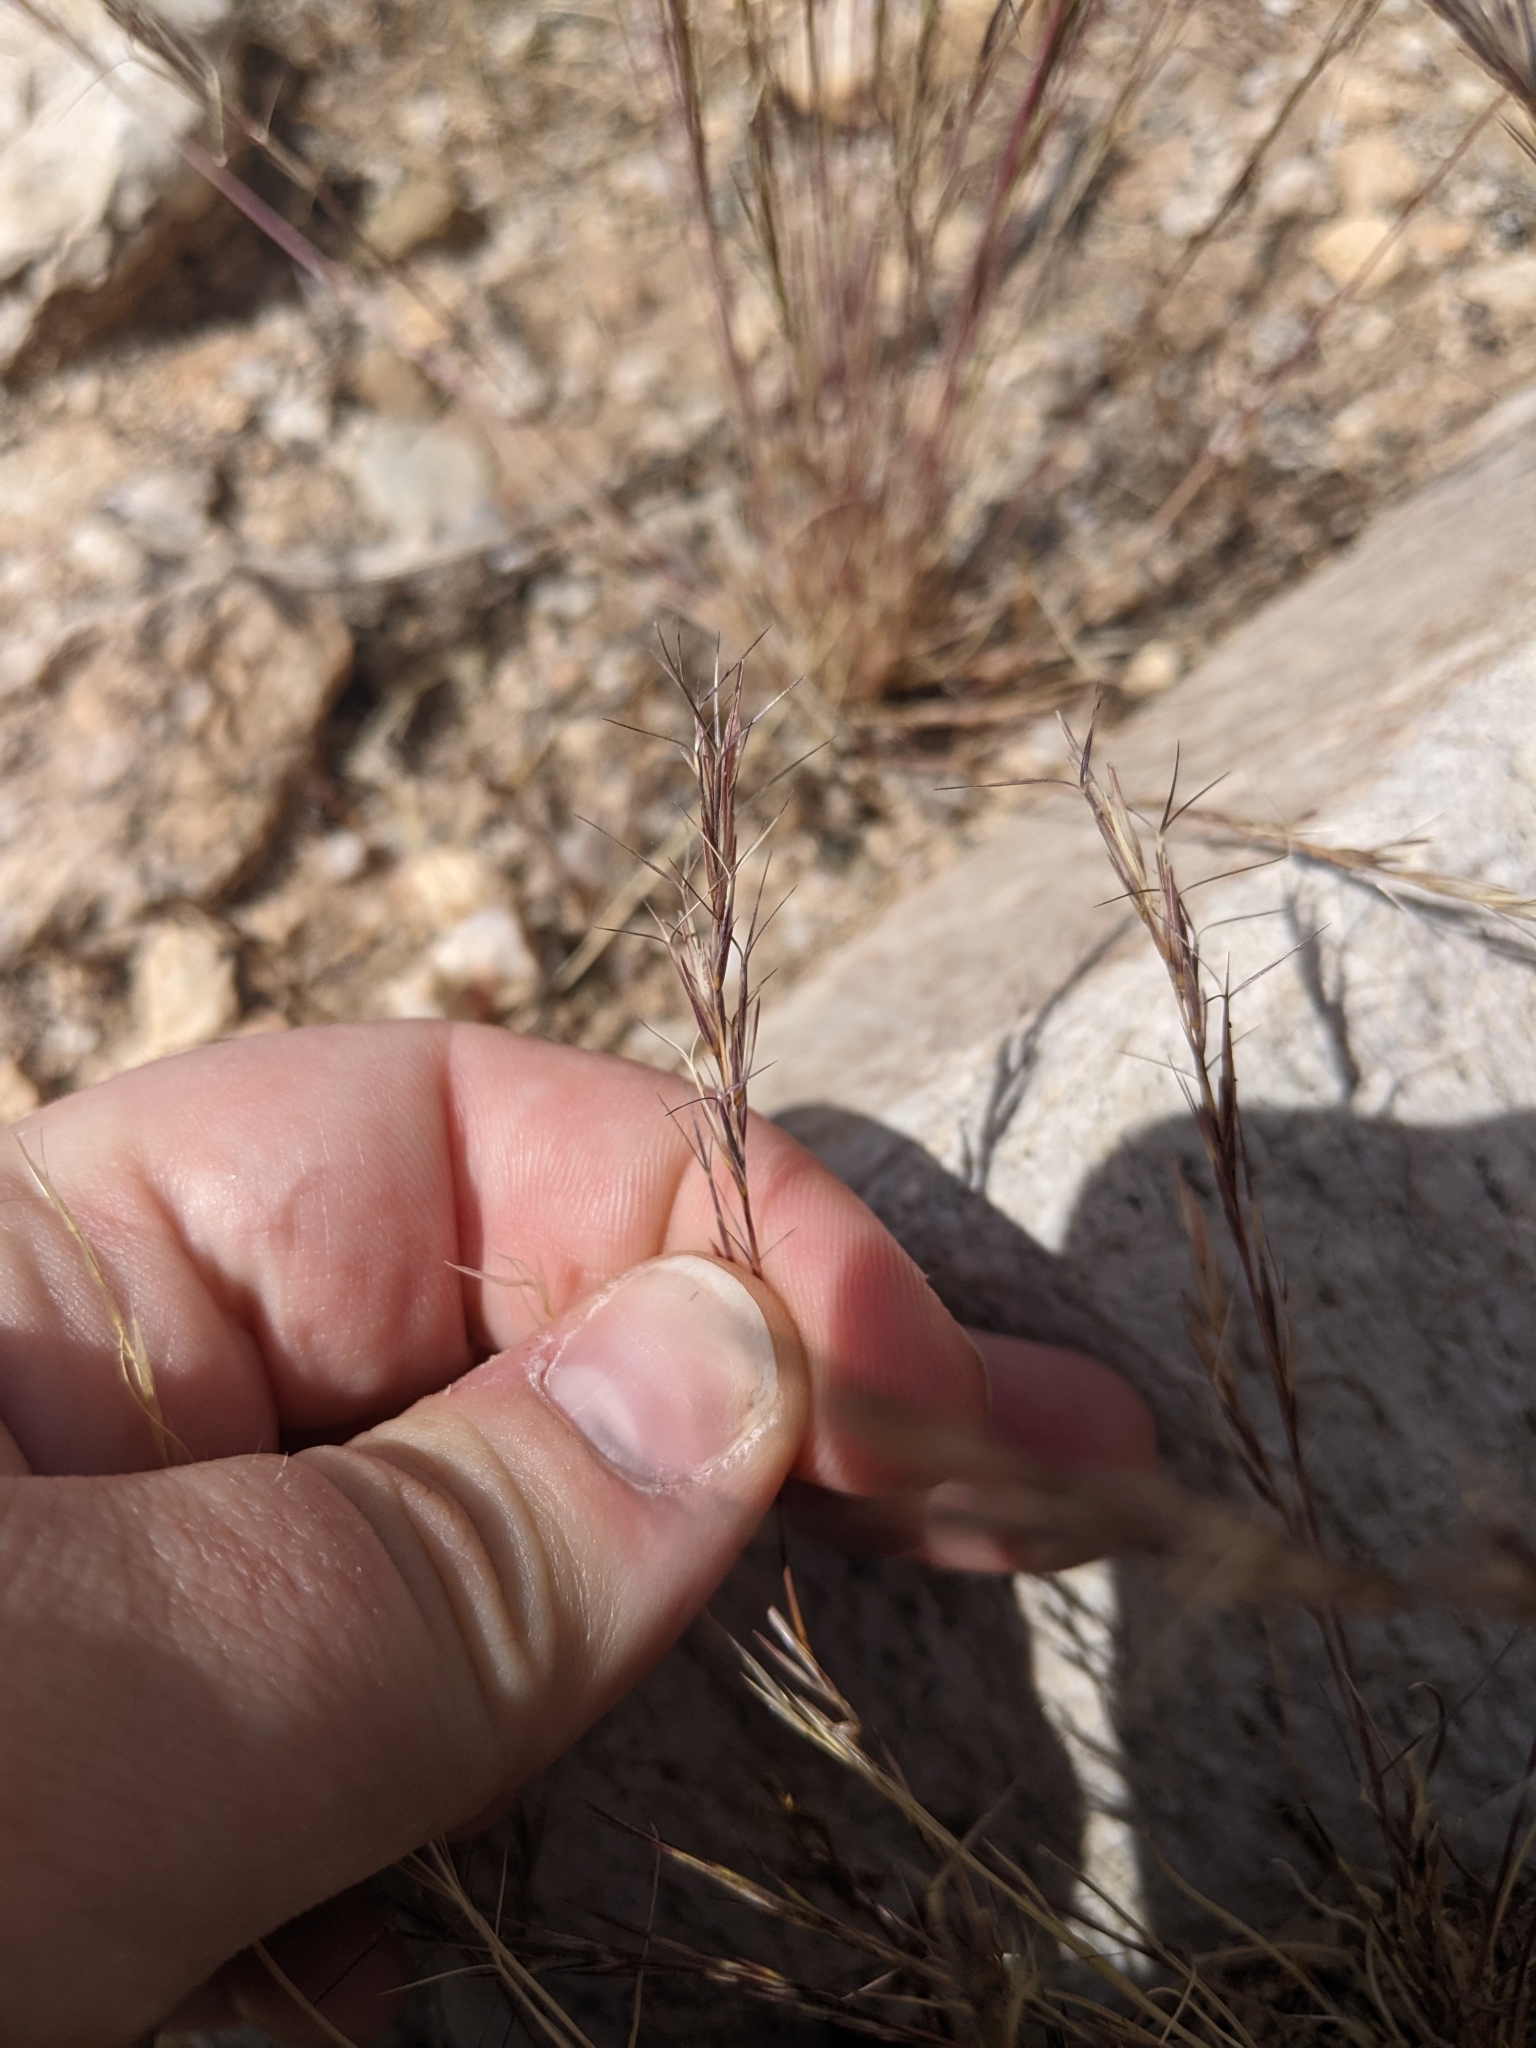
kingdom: Plantae
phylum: Tracheophyta
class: Liliopsida
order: Poales
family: Poaceae
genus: Aristida
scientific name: Aristida adscensionis
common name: Sixweeks threeawn
